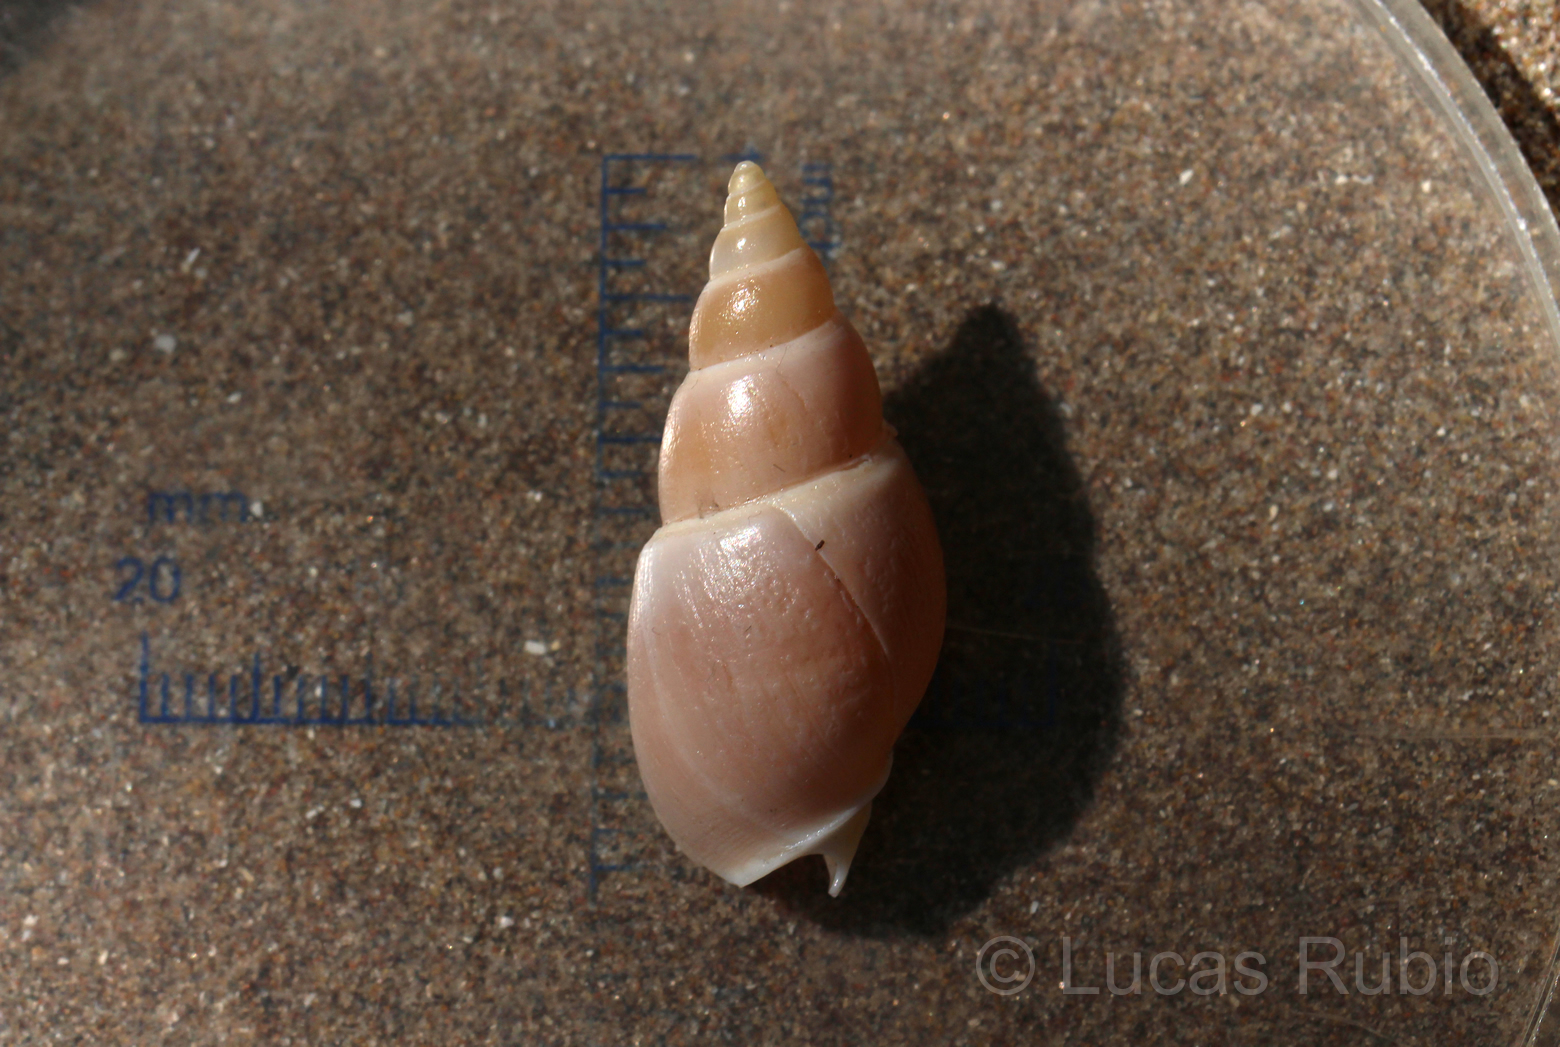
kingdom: Animalia
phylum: Mollusca
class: Gastropoda
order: Neogastropoda
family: Buccinanopsidae
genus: Buccinastrum
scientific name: Buccinastrum uruguayense
